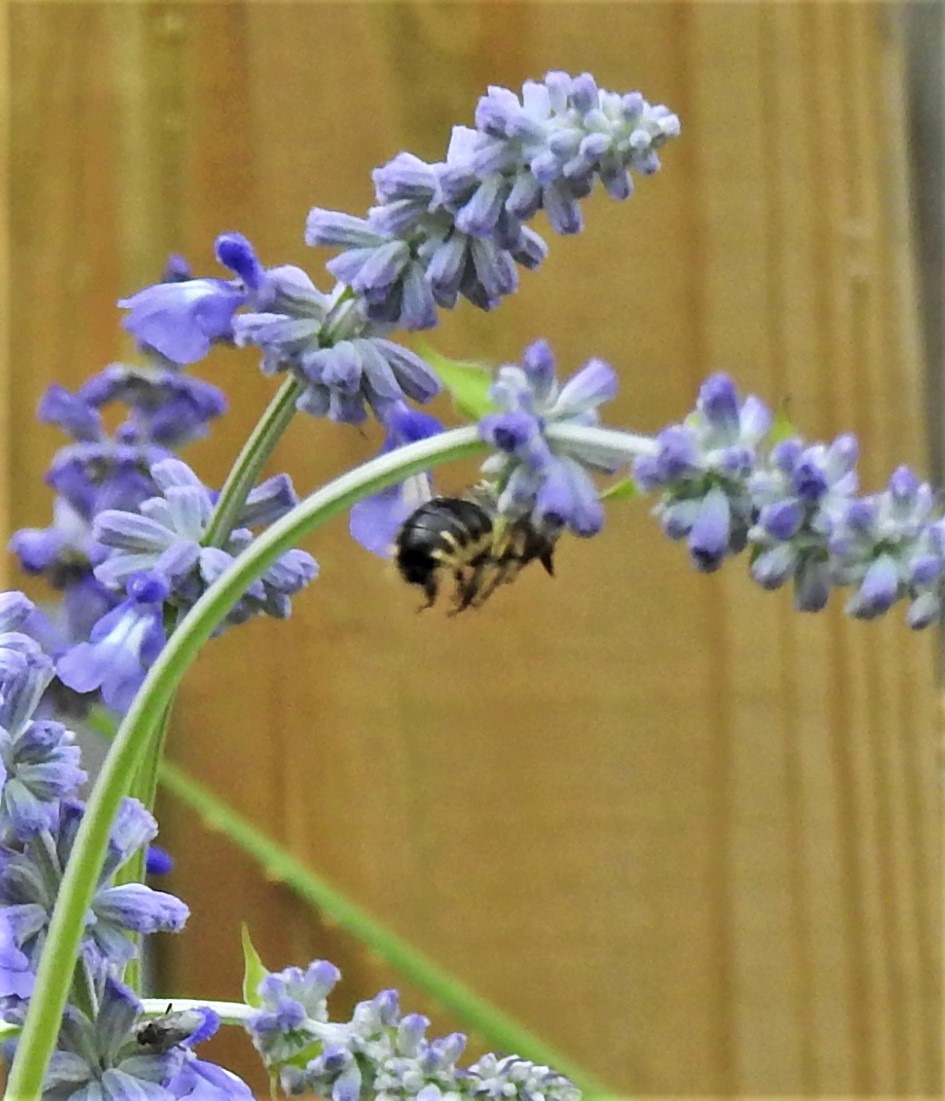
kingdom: Animalia
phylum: Arthropoda
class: Insecta
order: Hymenoptera
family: Apidae
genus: Xylocopa
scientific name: Xylocopa tabaniformis
